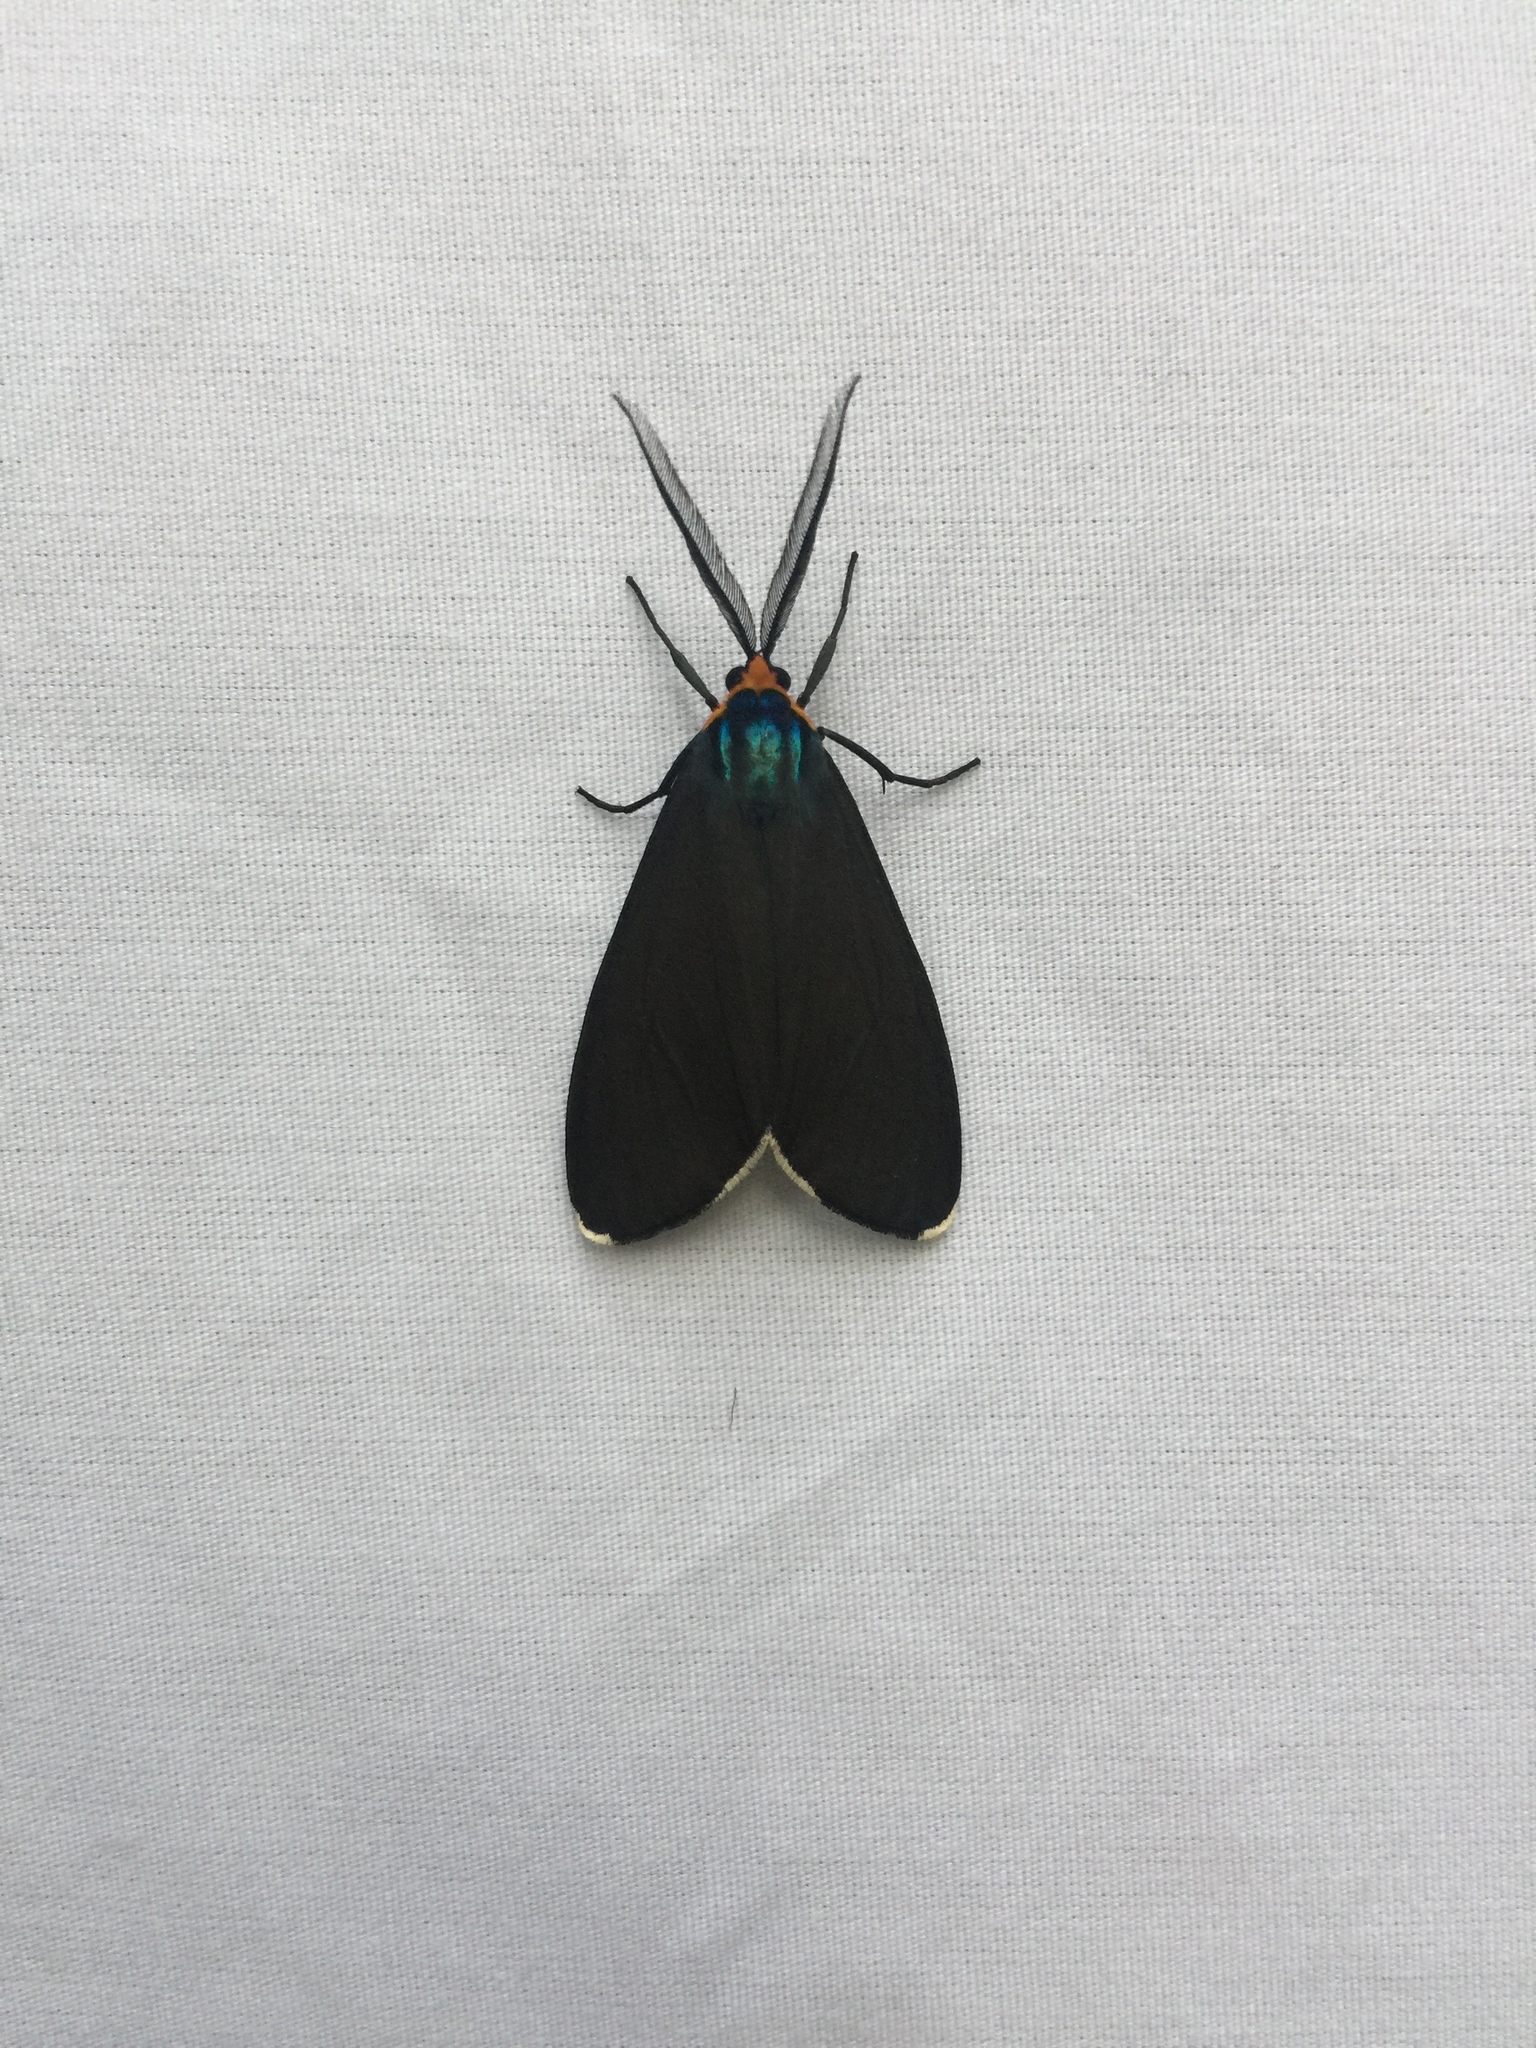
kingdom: Animalia
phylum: Arthropoda
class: Insecta
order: Lepidoptera
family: Erebidae
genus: Ctenucha
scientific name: Ctenucha virginica
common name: Virginia ctenucha moth
